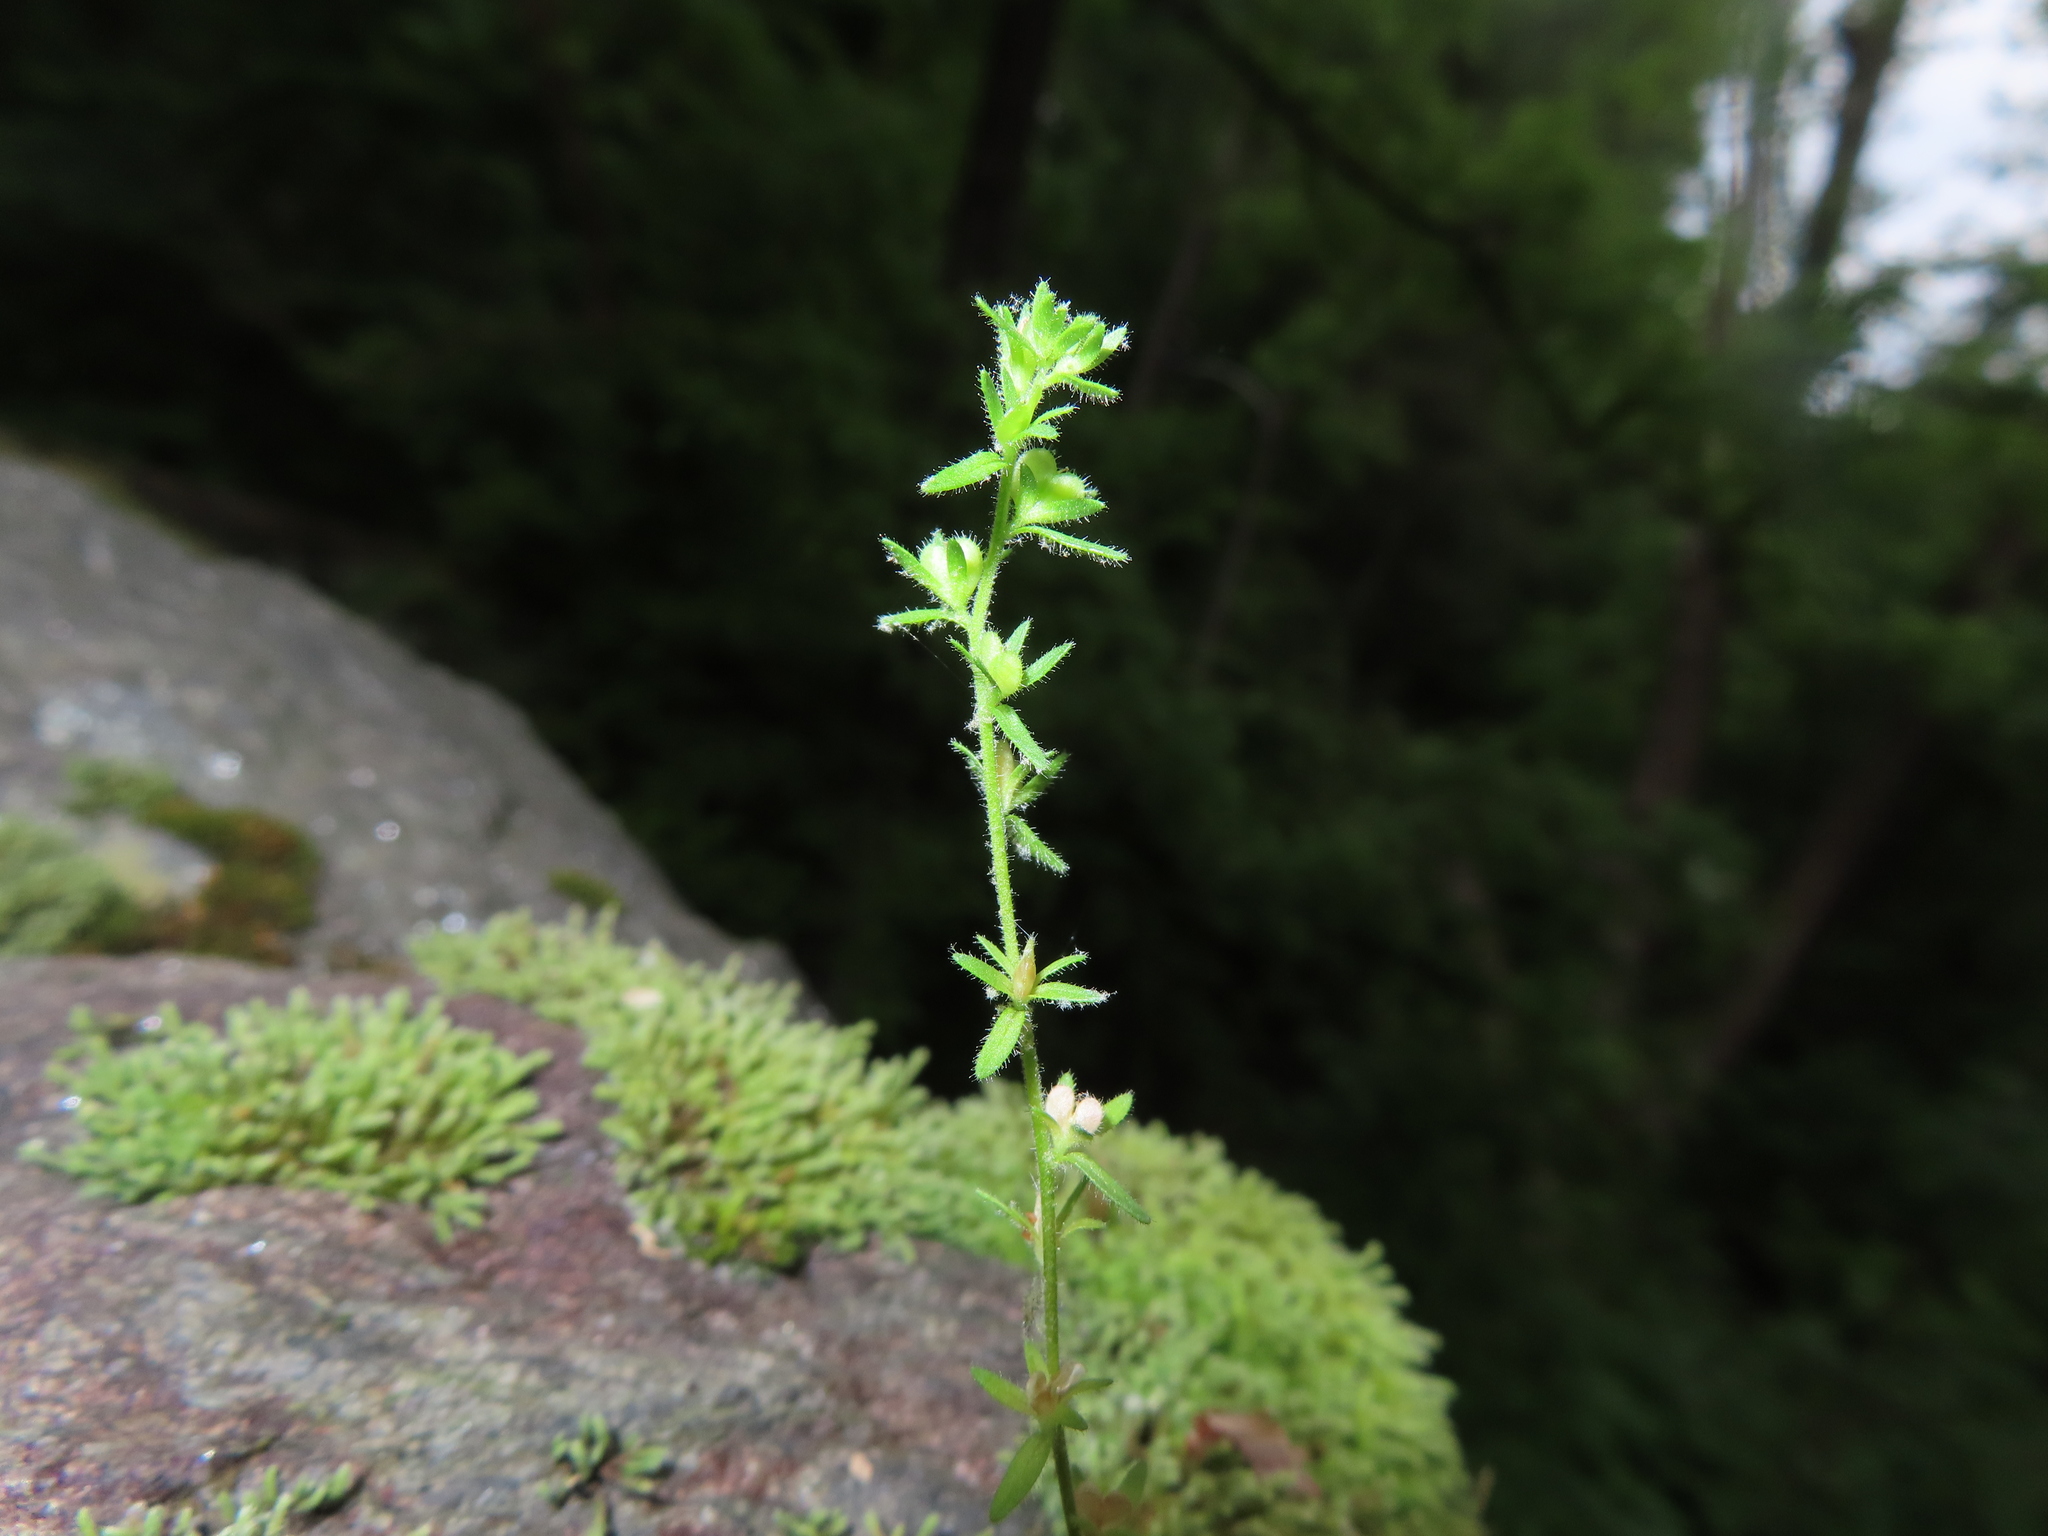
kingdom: Plantae
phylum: Tracheophyta
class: Magnoliopsida
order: Lamiales
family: Plantaginaceae
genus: Veronica
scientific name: Veronica arvensis
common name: Corn speedwell
